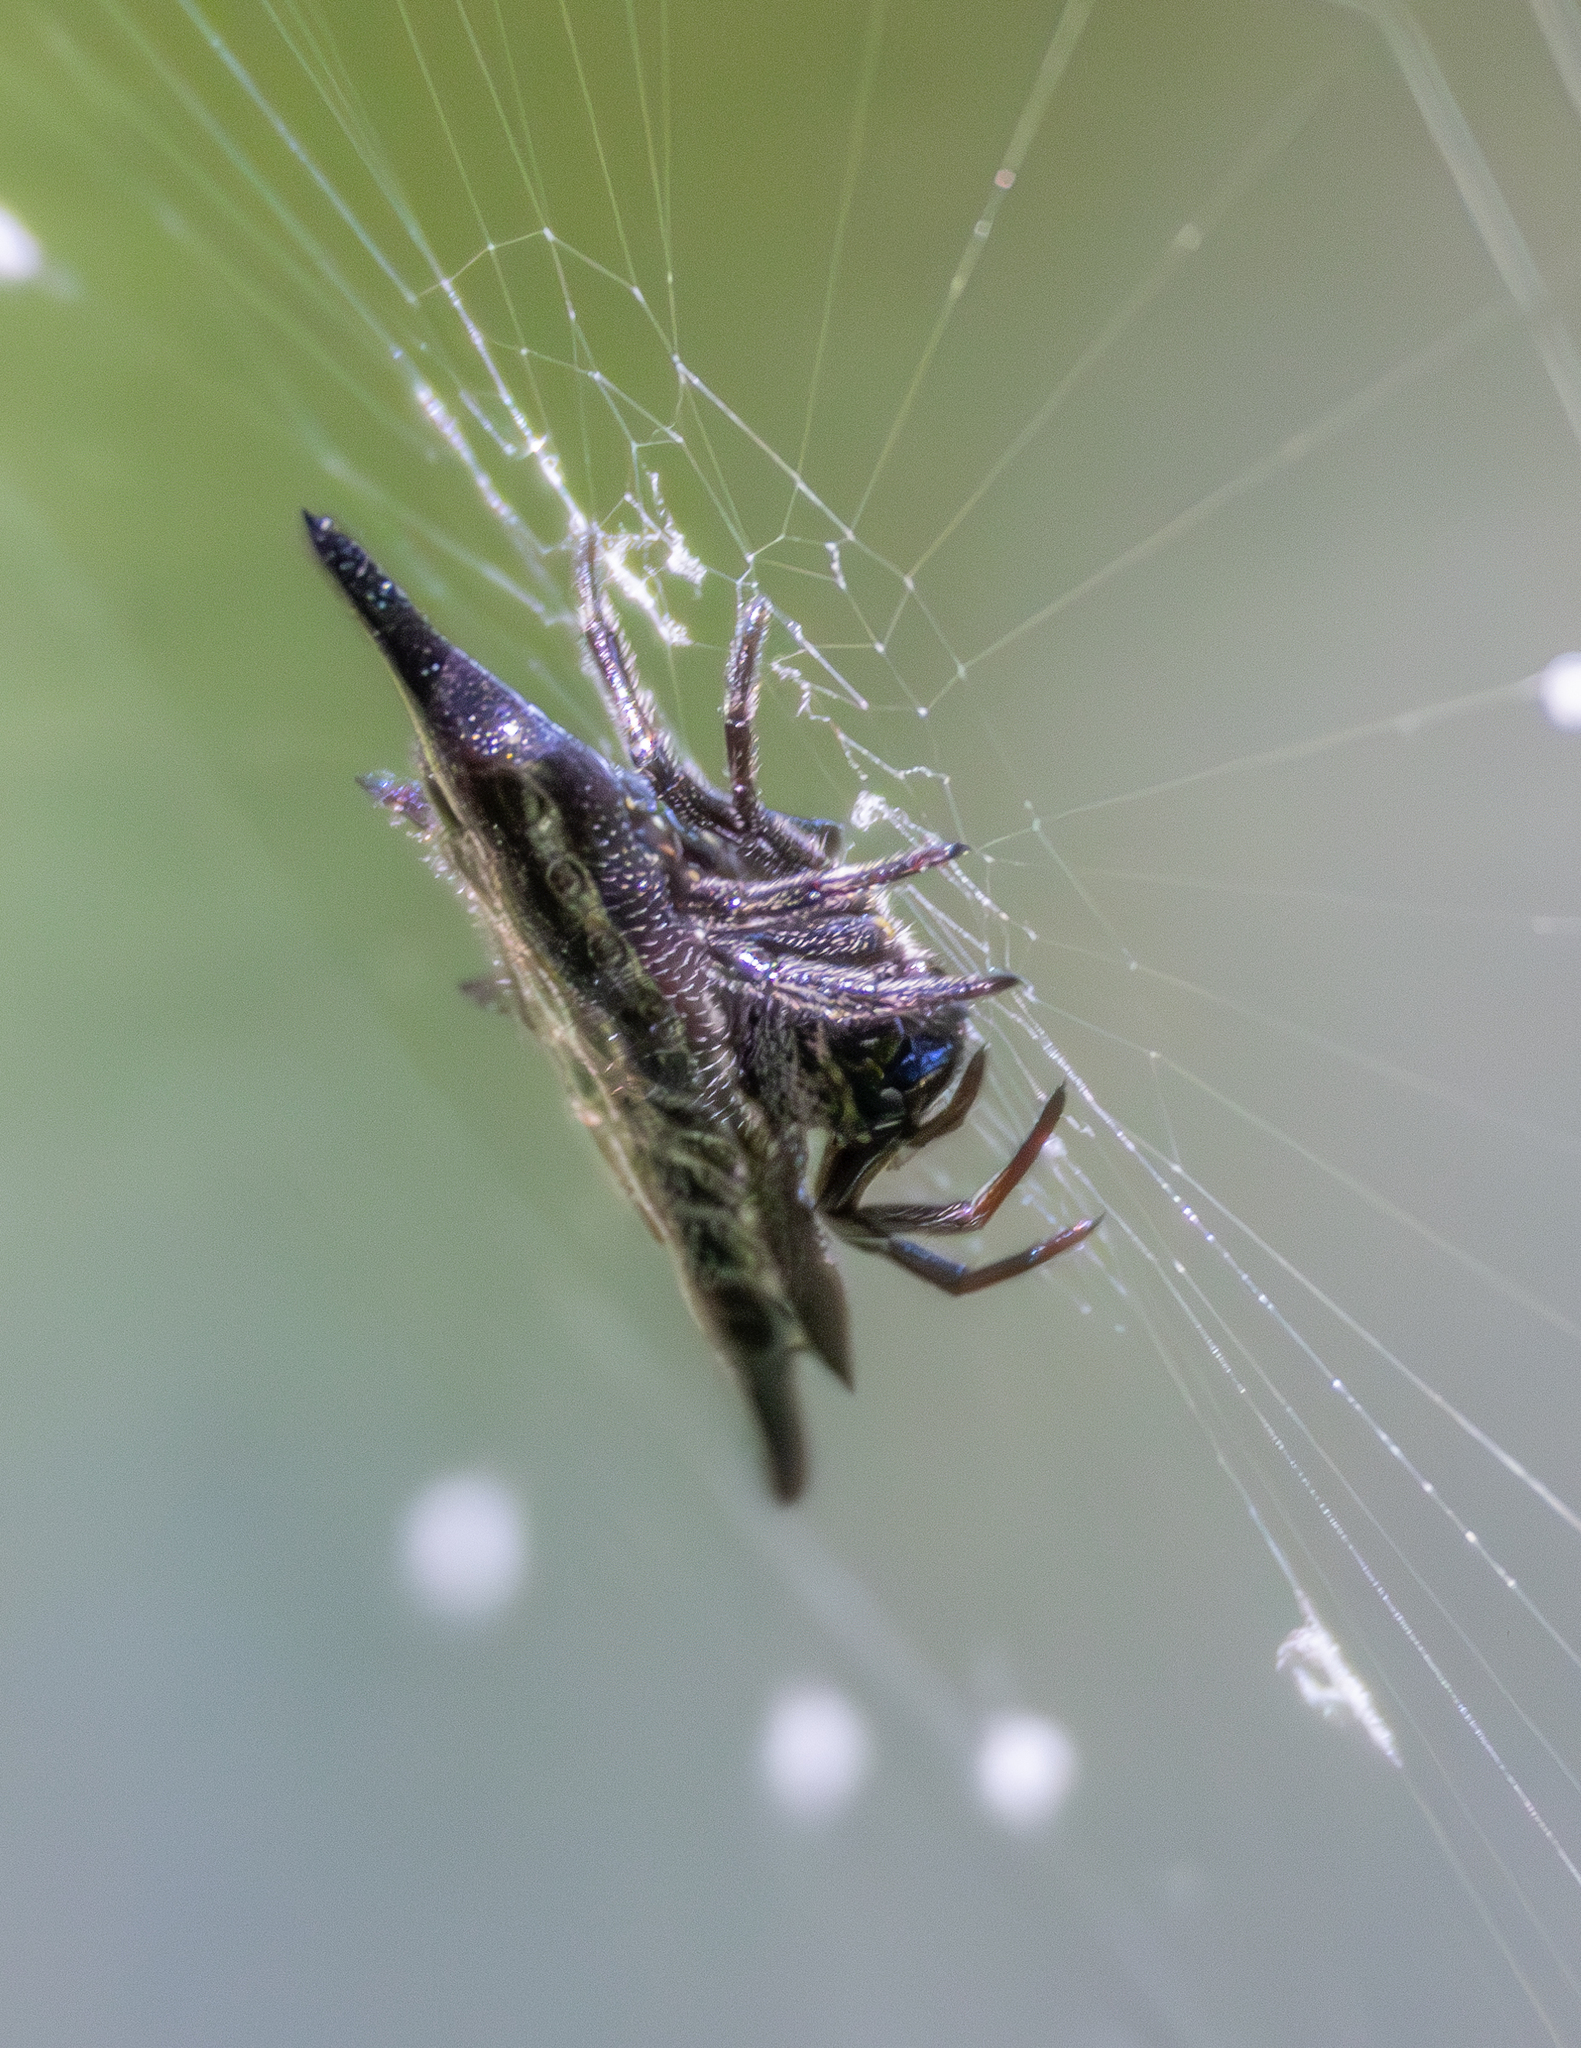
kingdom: Animalia
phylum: Arthropoda
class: Arachnida
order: Araneae
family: Araneidae
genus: Gasteracantha
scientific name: Gasteracantha diardi
